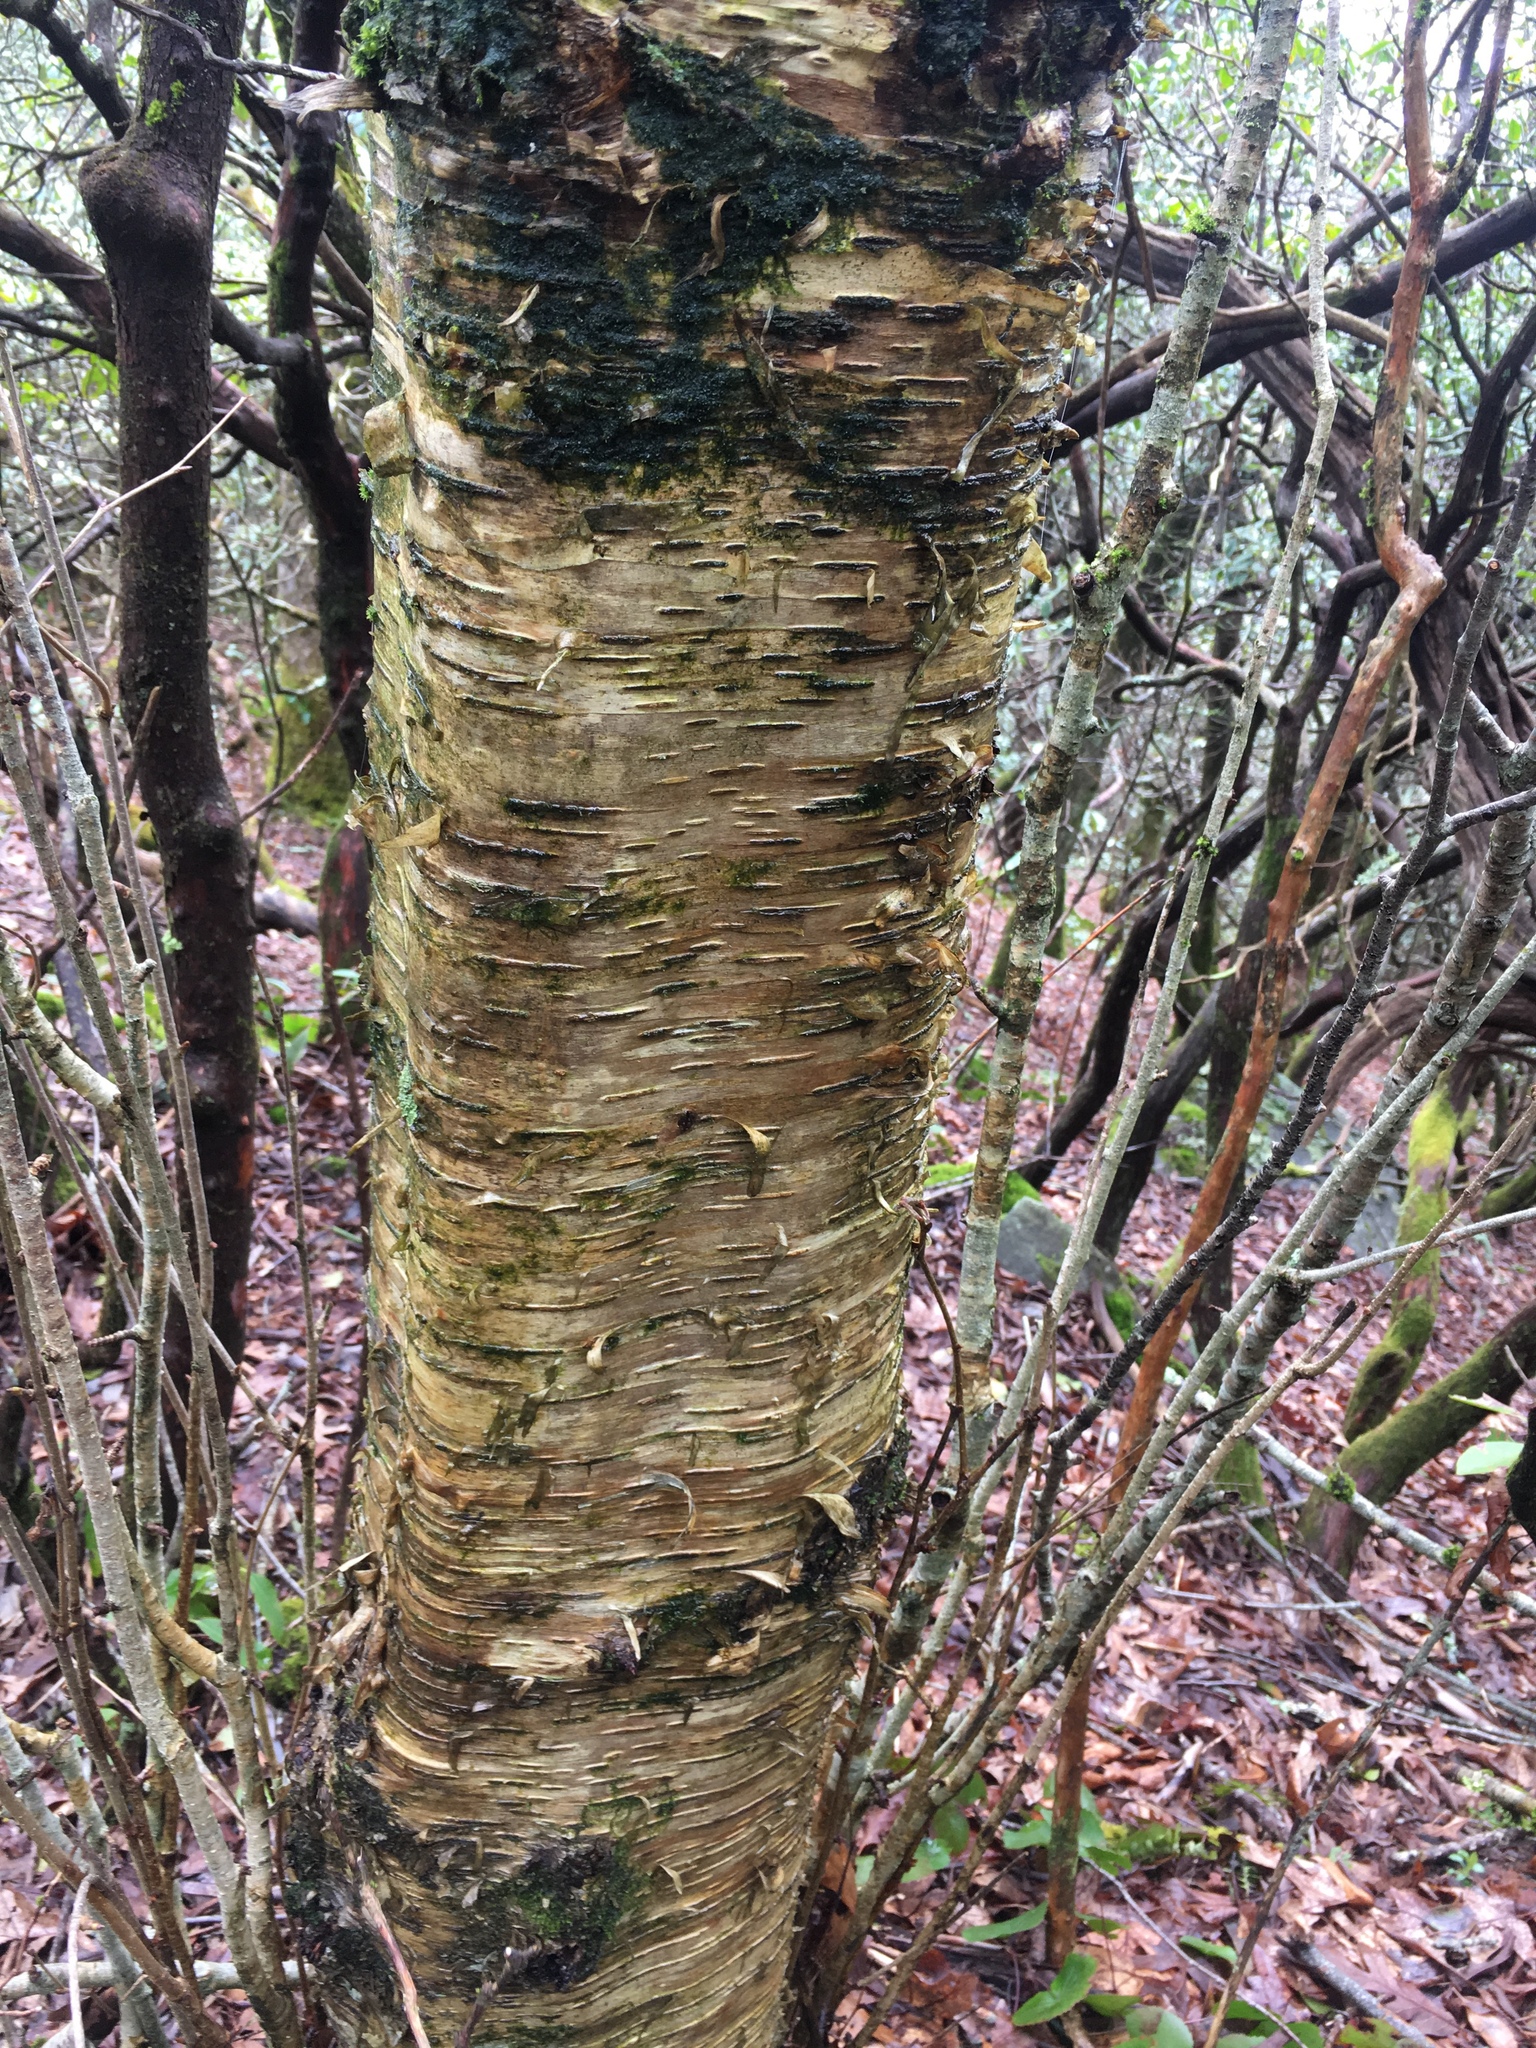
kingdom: Plantae
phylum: Tracheophyta
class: Magnoliopsida
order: Fagales
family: Betulaceae
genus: Betula
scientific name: Betula alleghaniensis
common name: Yellow birch
